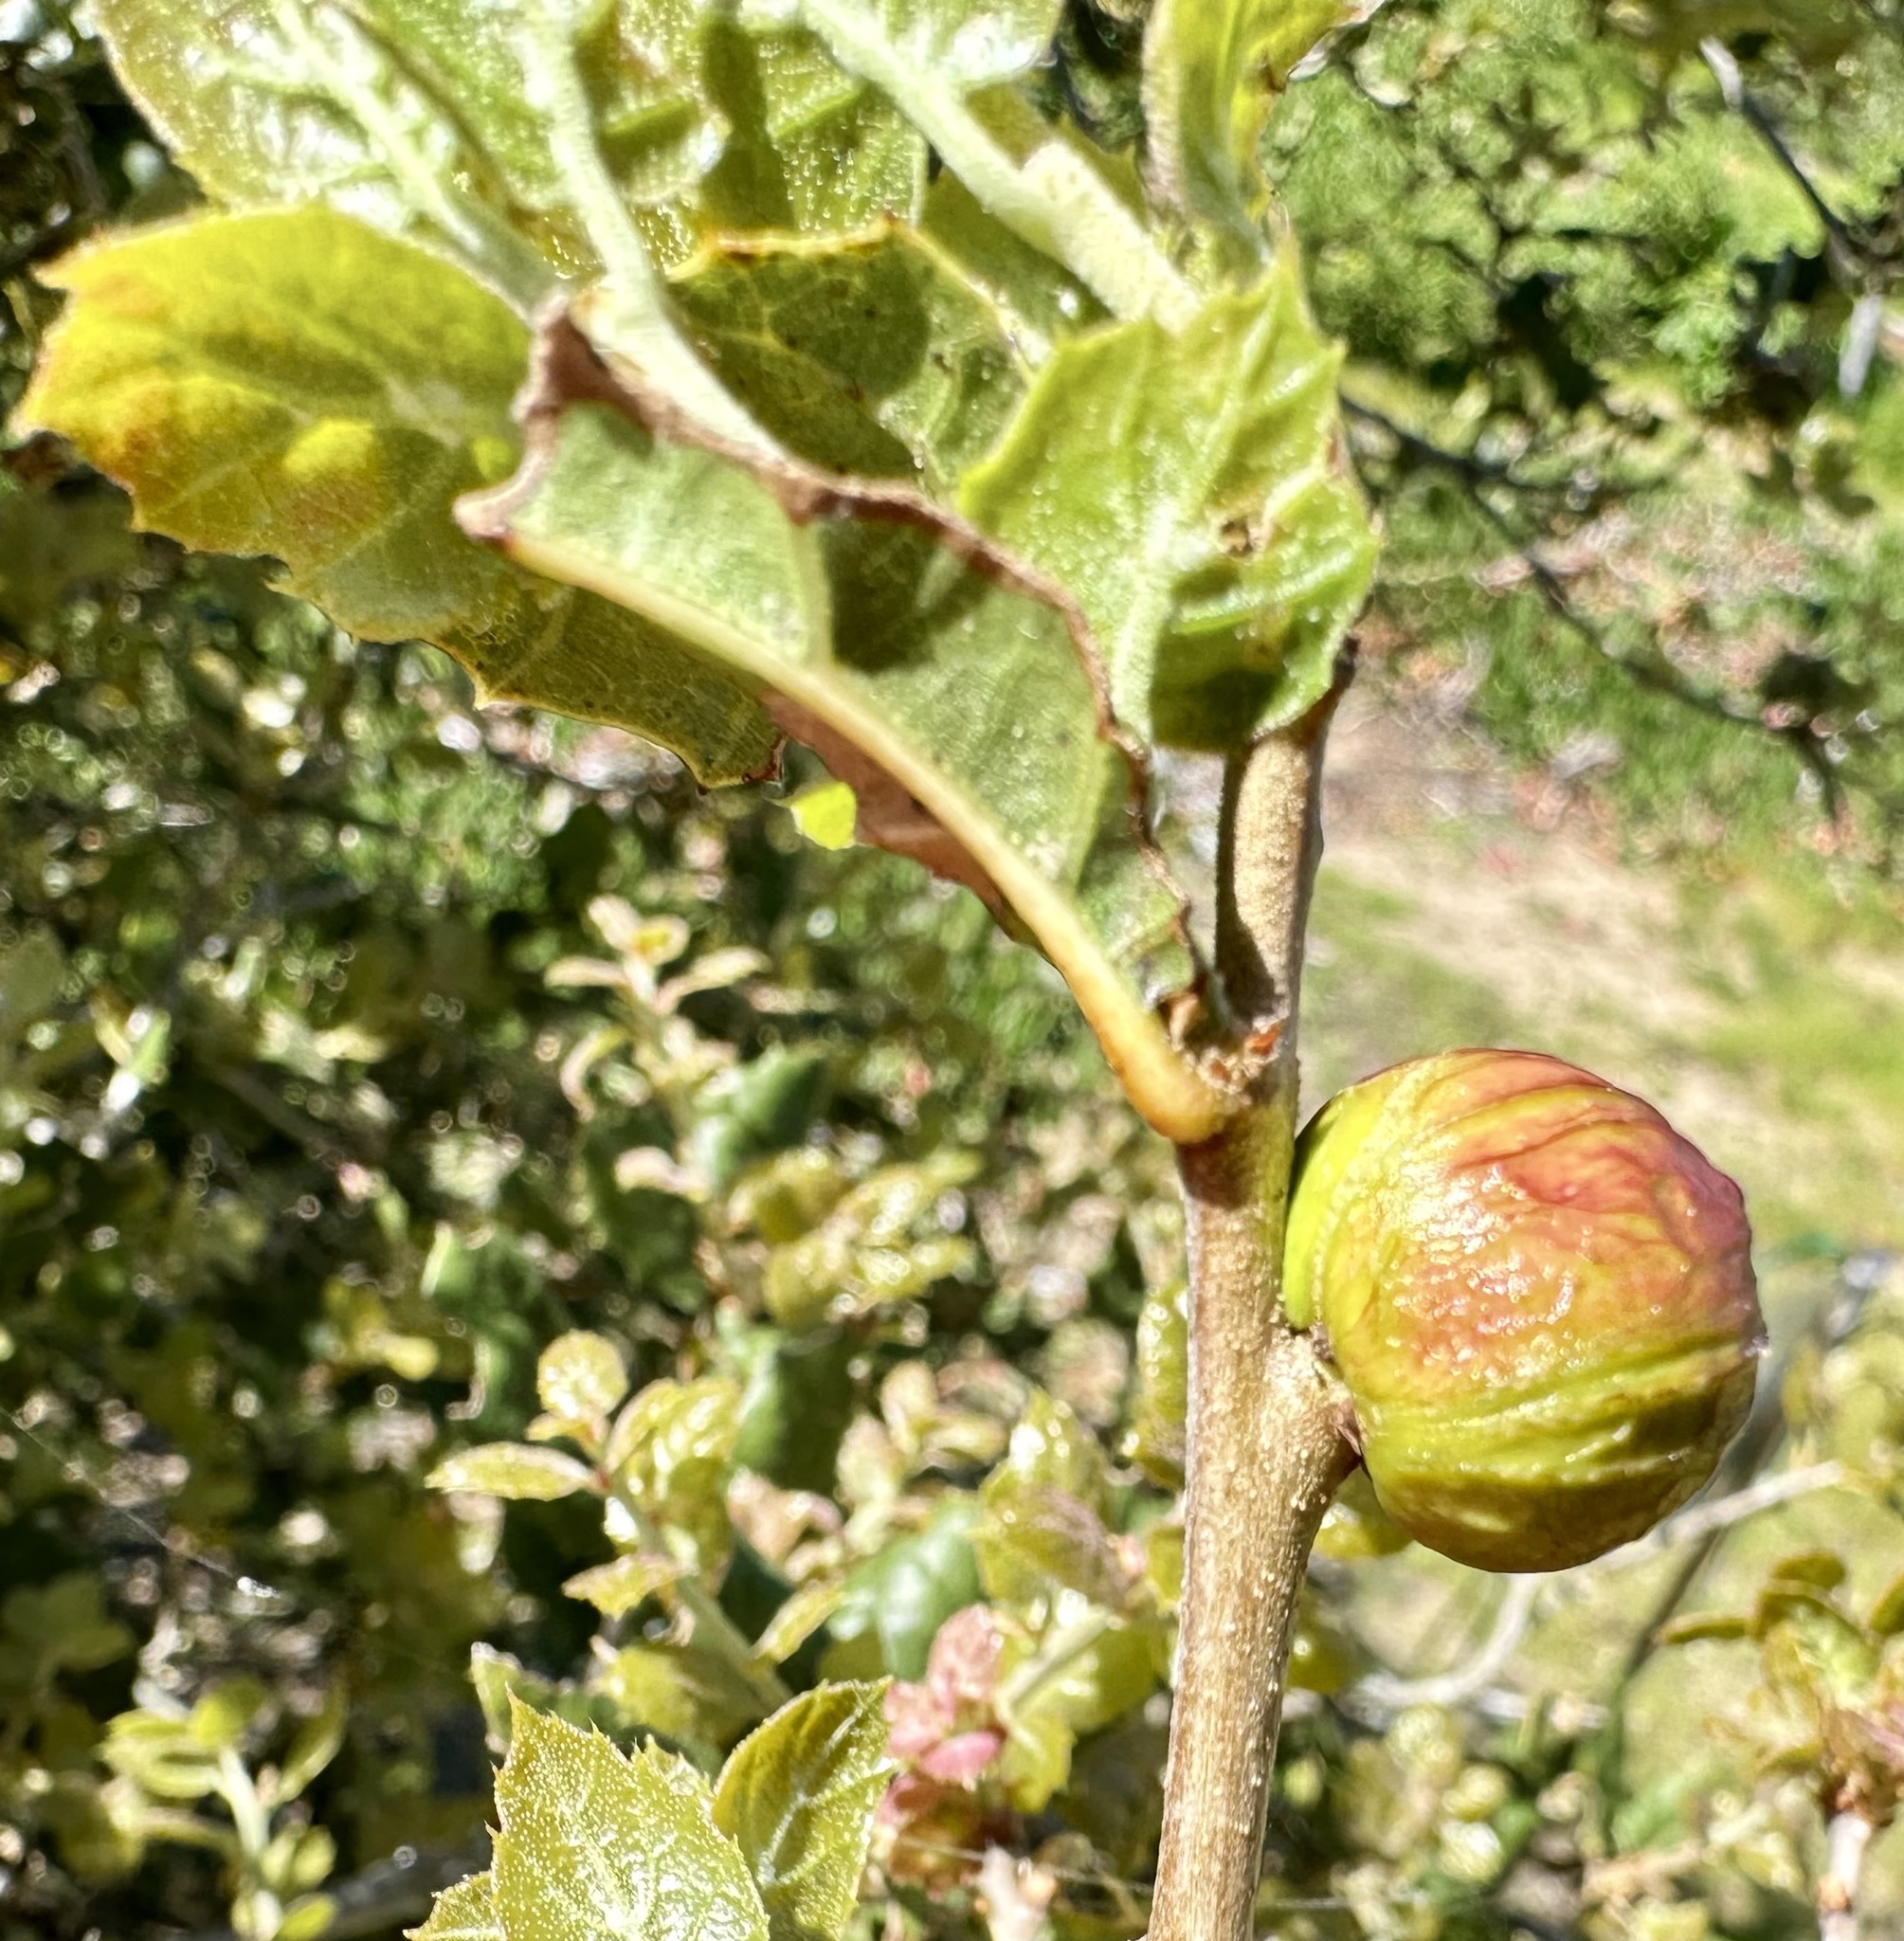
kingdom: Animalia
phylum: Arthropoda
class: Insecta
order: Hymenoptera
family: Cynipidae
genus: Amphibolips
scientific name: Amphibolips quercuspomiformis
